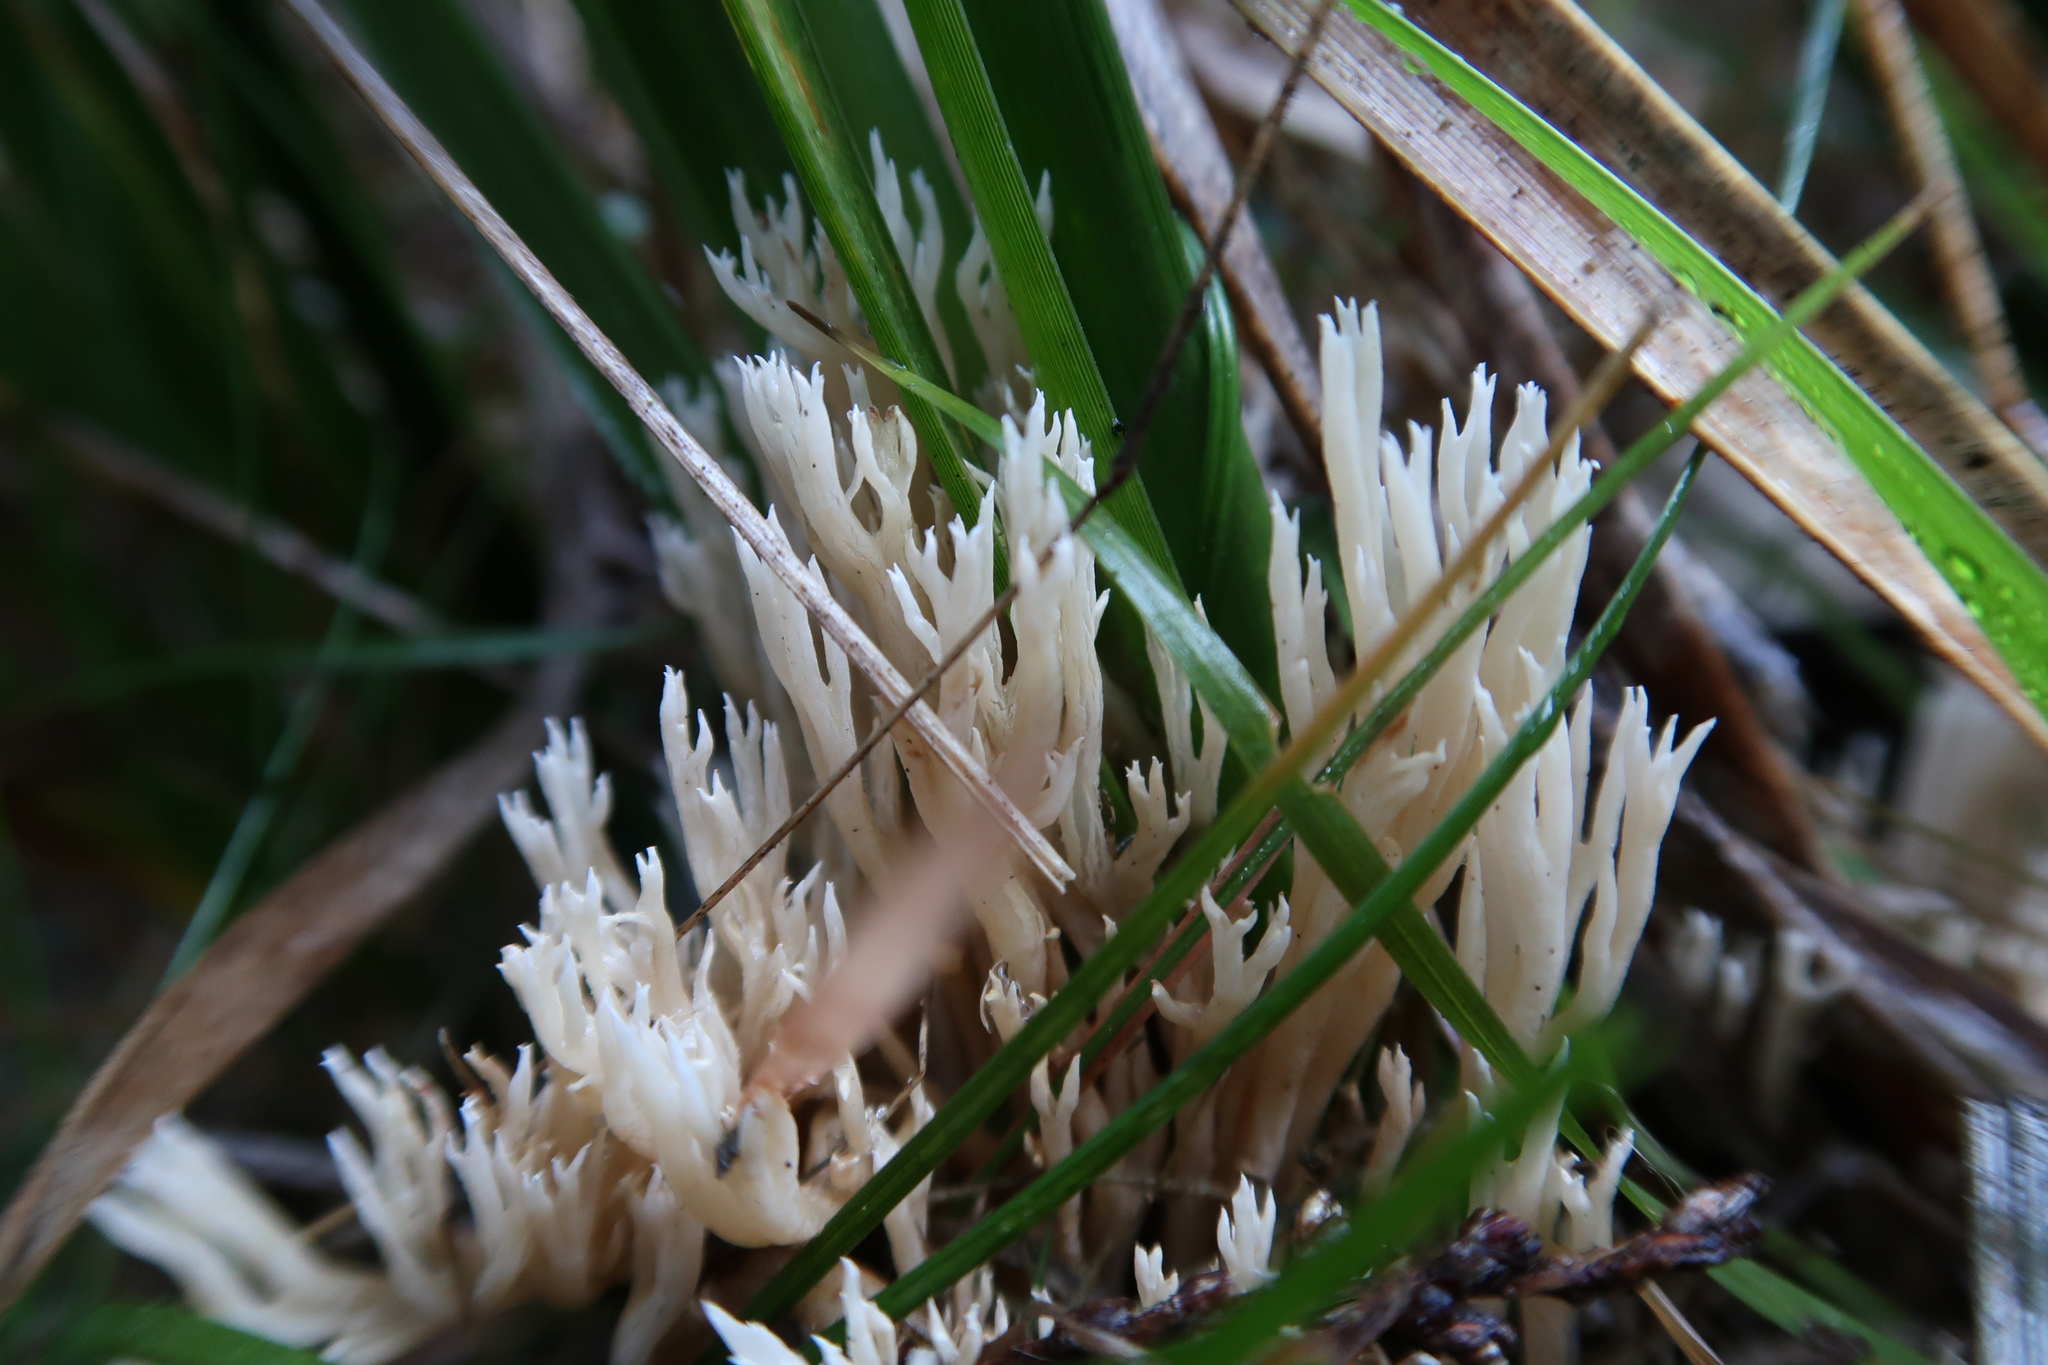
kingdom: Fungi
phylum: Basidiomycota
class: Agaricomycetes
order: Gomphales
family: Gomphaceae
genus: Ramaria
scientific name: Ramaria filicicola
